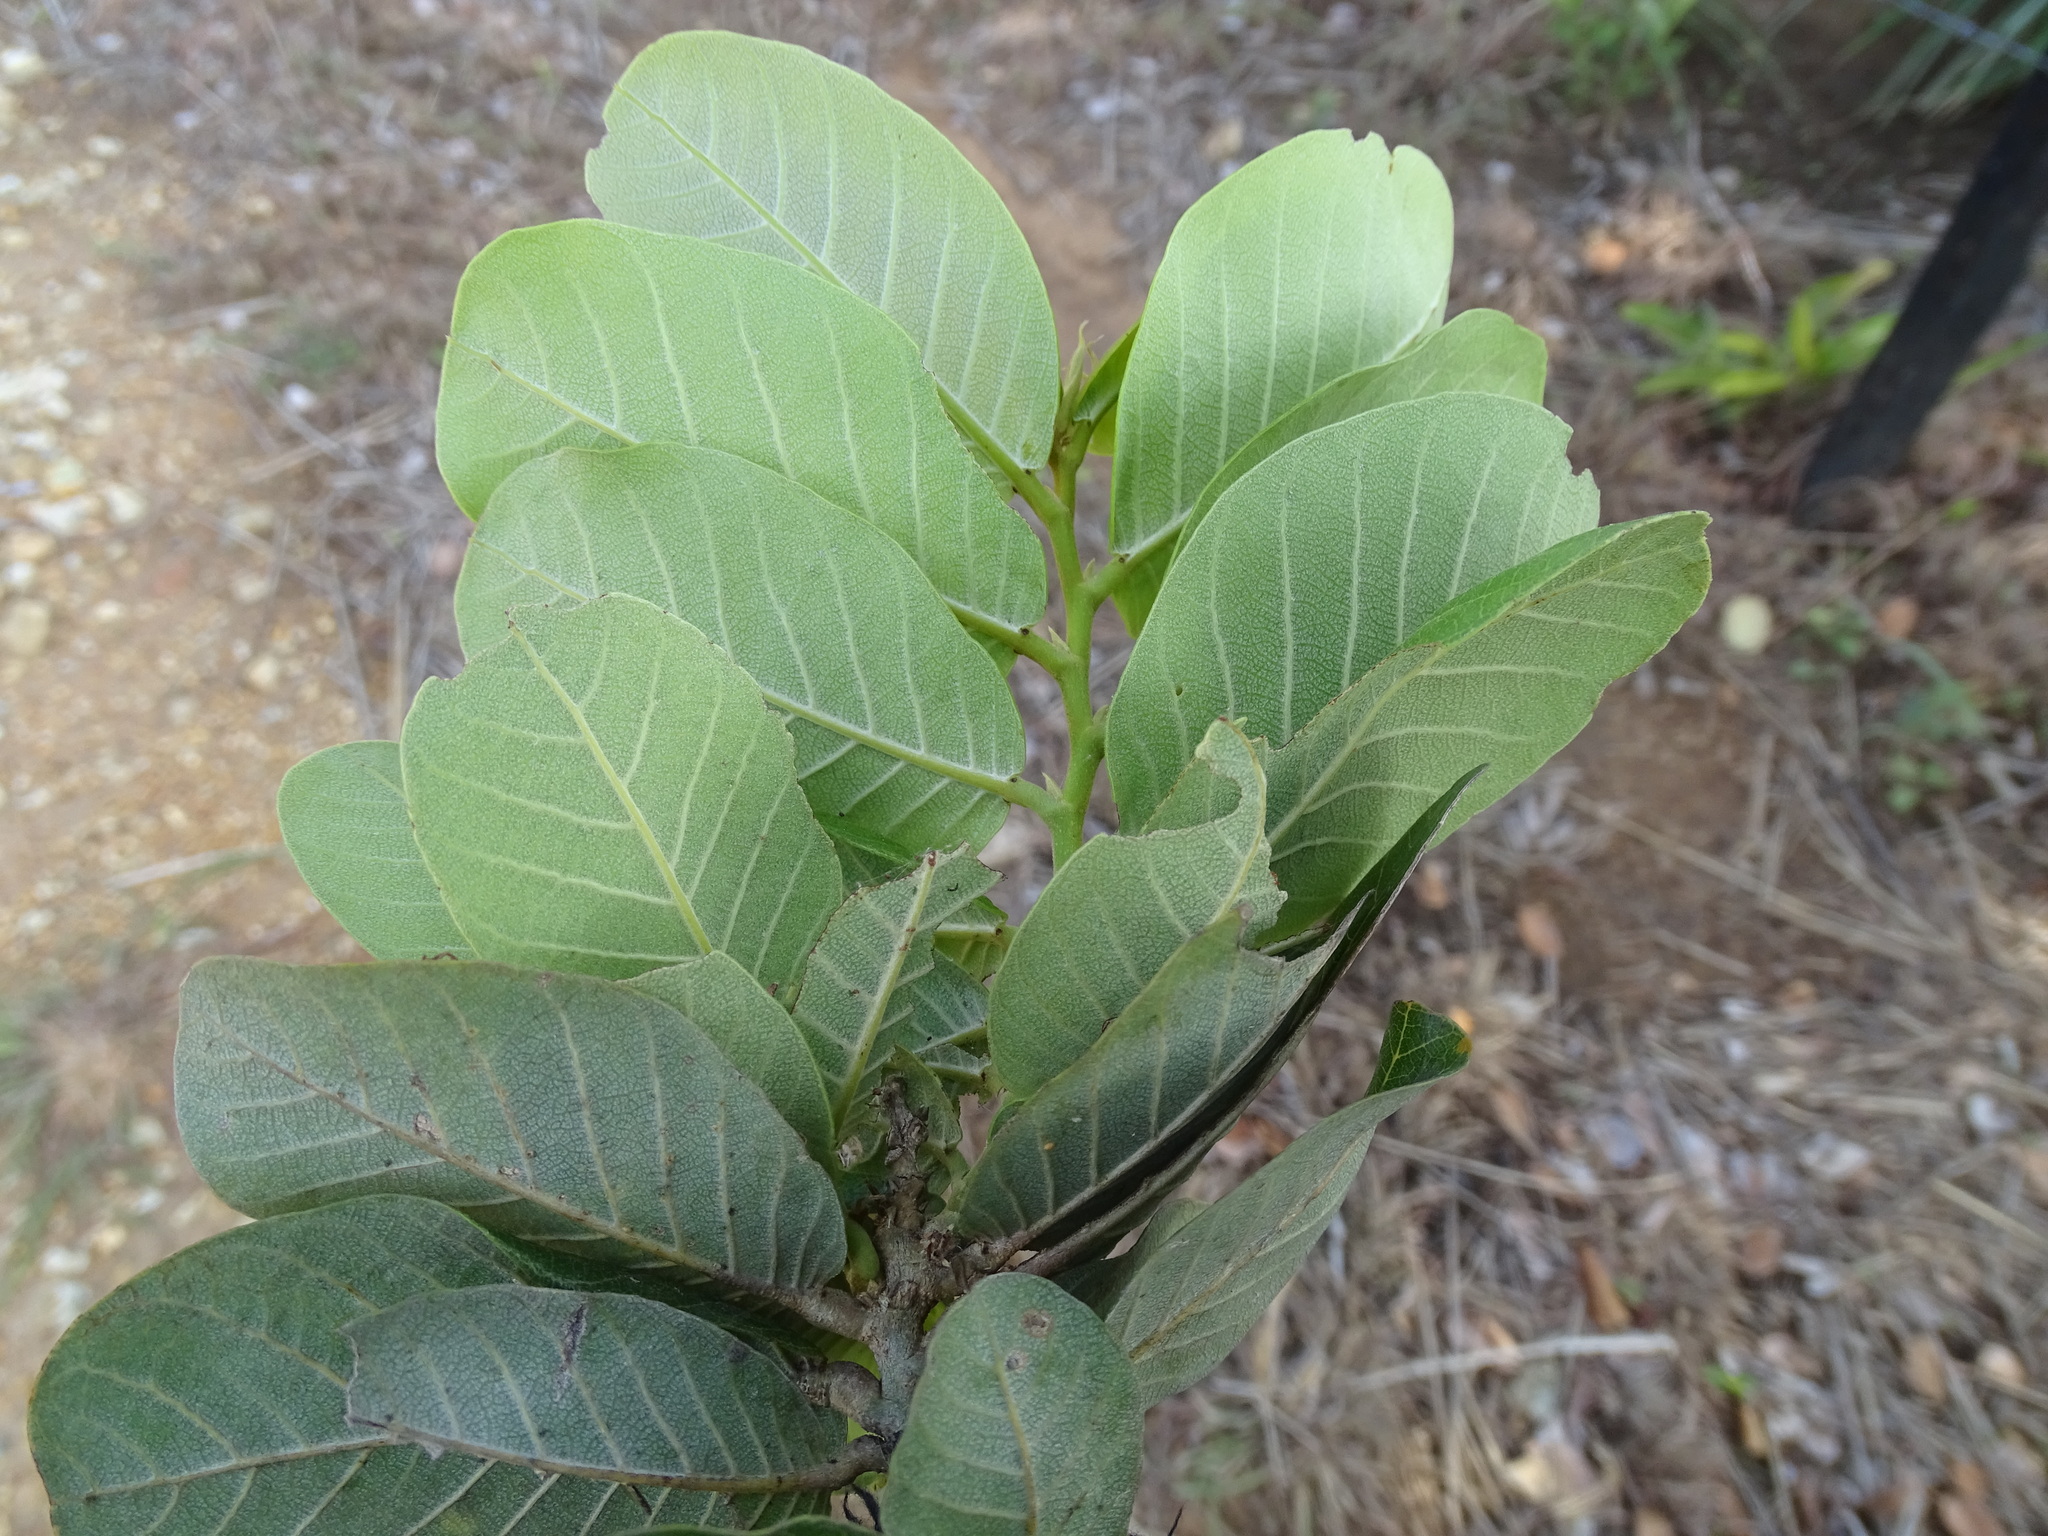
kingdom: Plantae
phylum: Tracheophyta
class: Magnoliopsida
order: Malpighiales
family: Chrysobalanaceae
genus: Microdesmia
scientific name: Microdesmia arborea
